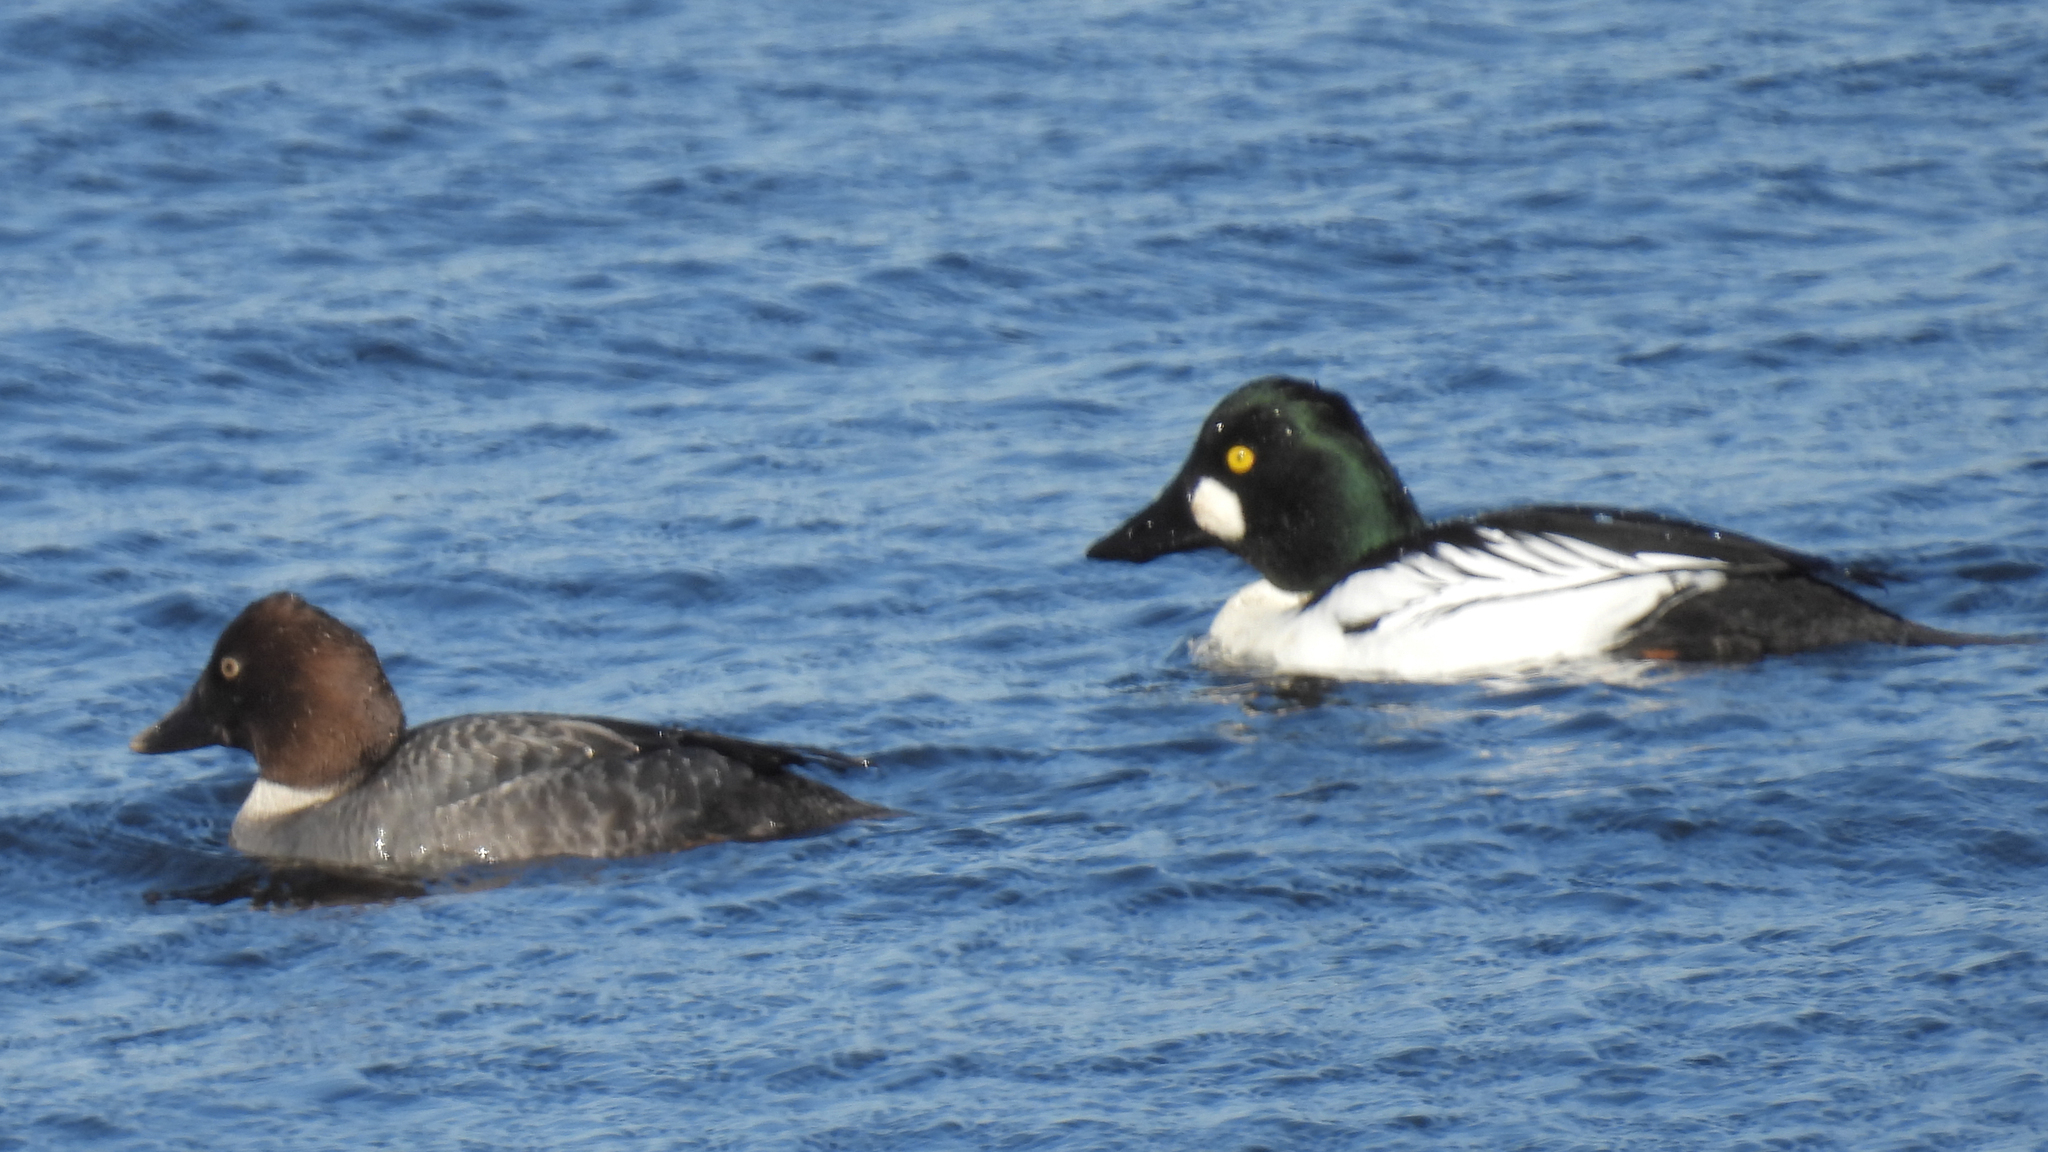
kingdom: Animalia
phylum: Chordata
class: Aves
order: Anseriformes
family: Anatidae
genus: Bucephala
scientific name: Bucephala clangula
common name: Common goldeneye
